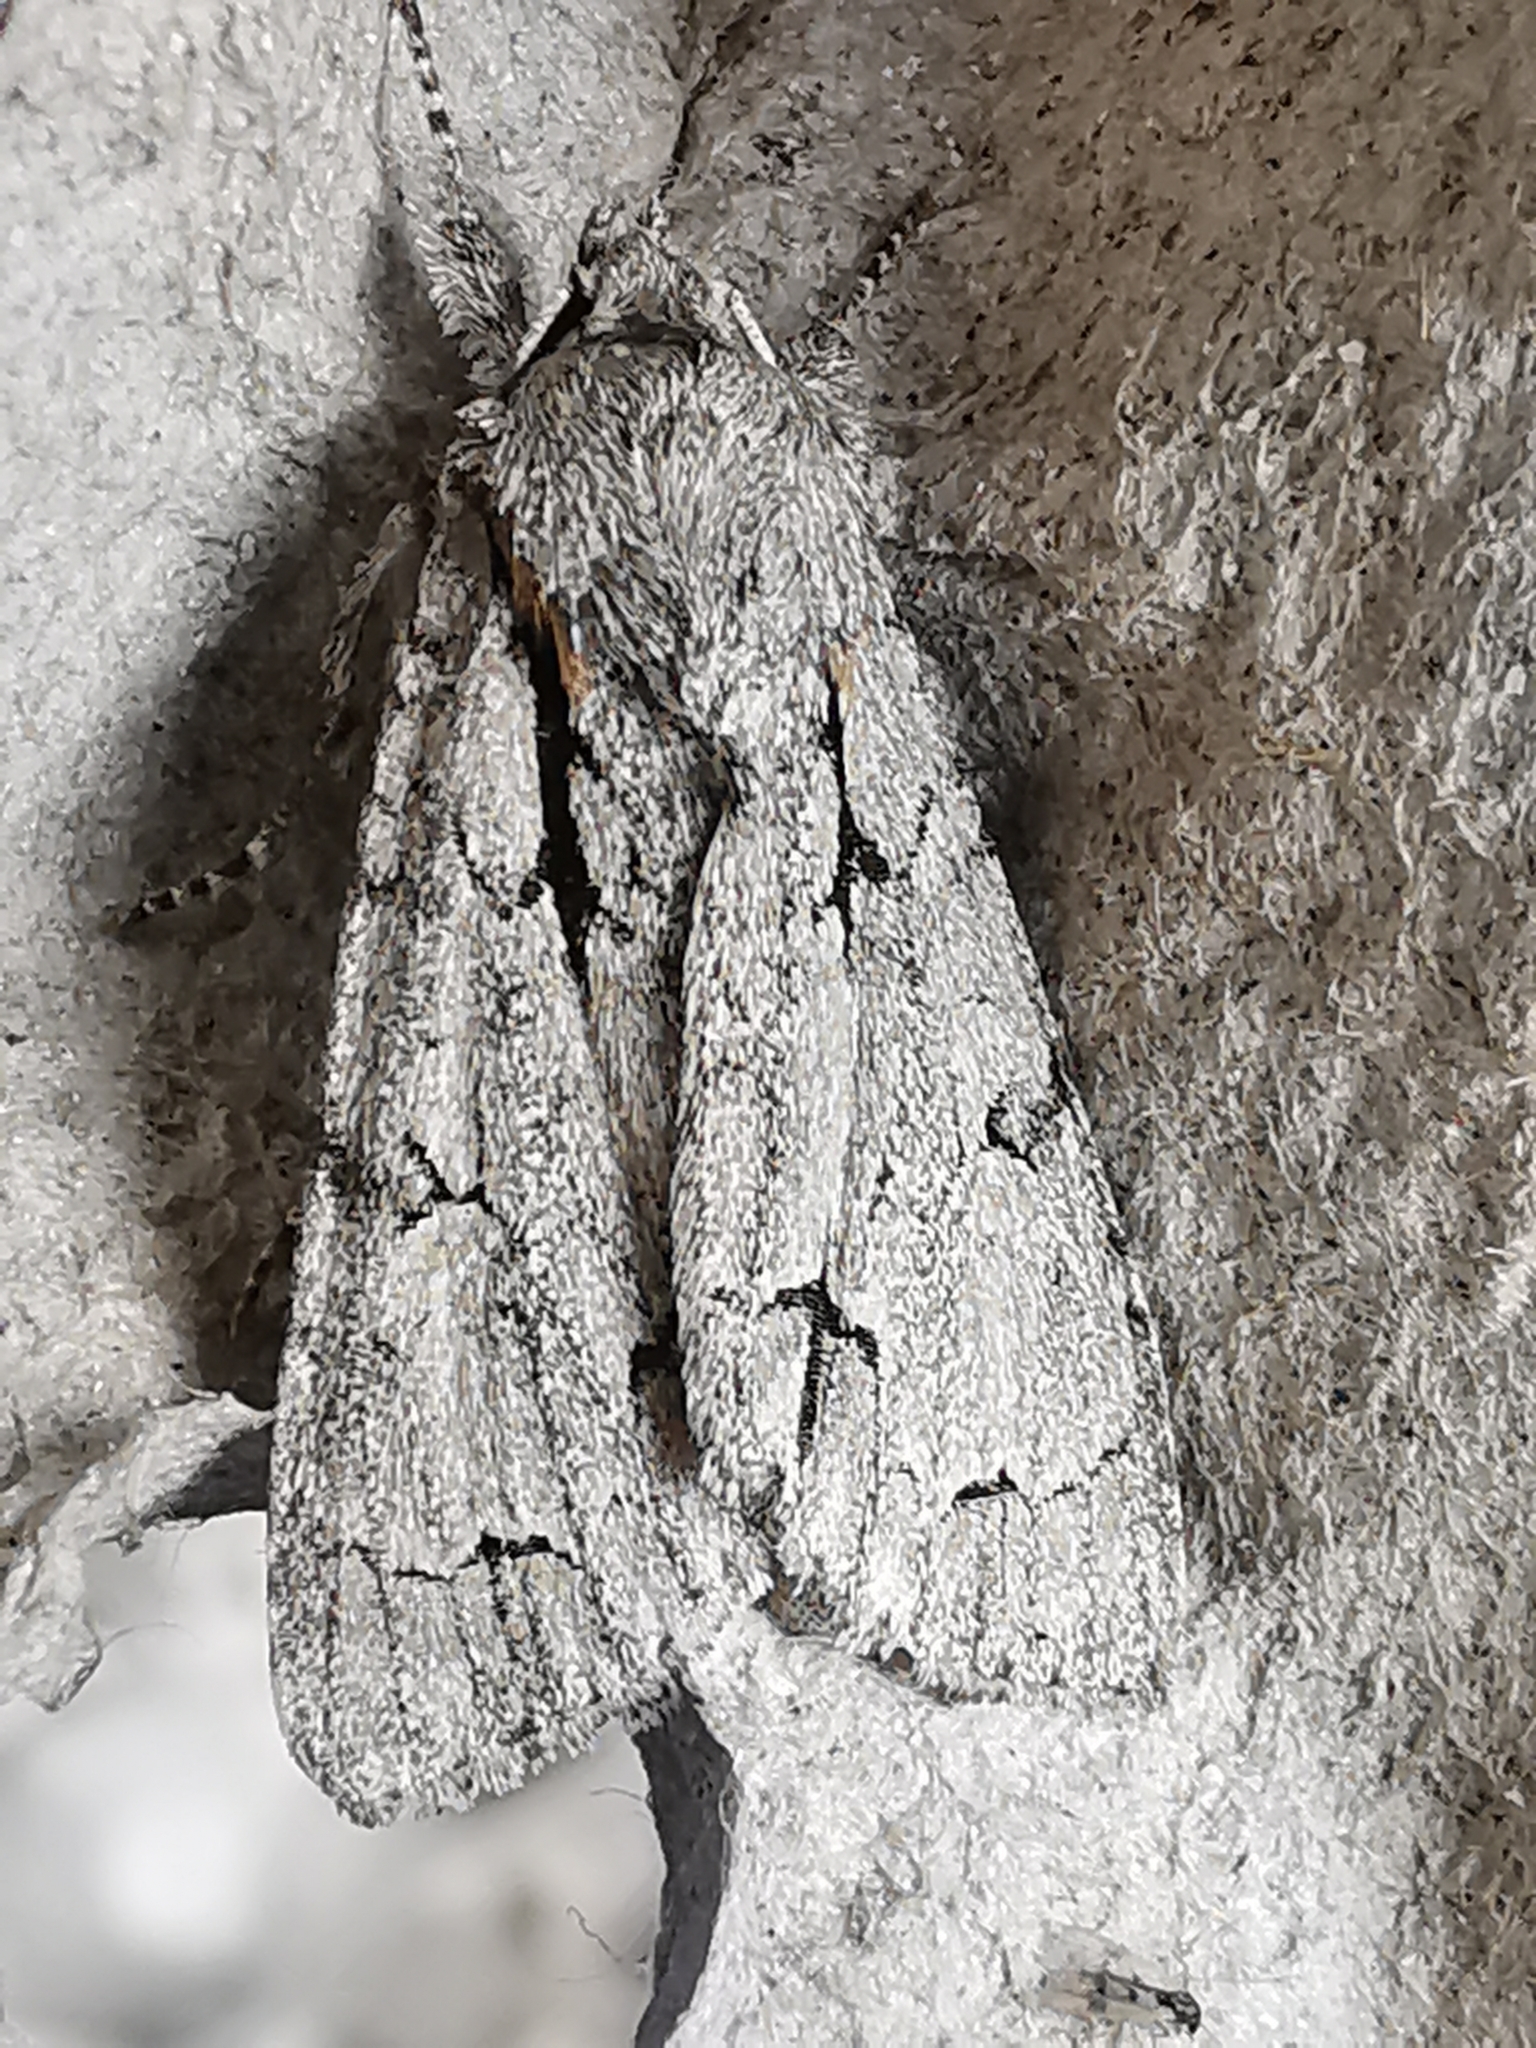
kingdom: Animalia
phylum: Arthropoda
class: Insecta
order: Lepidoptera
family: Noctuidae
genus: Acronicta
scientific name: Acronicta psi
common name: Grey dagger
